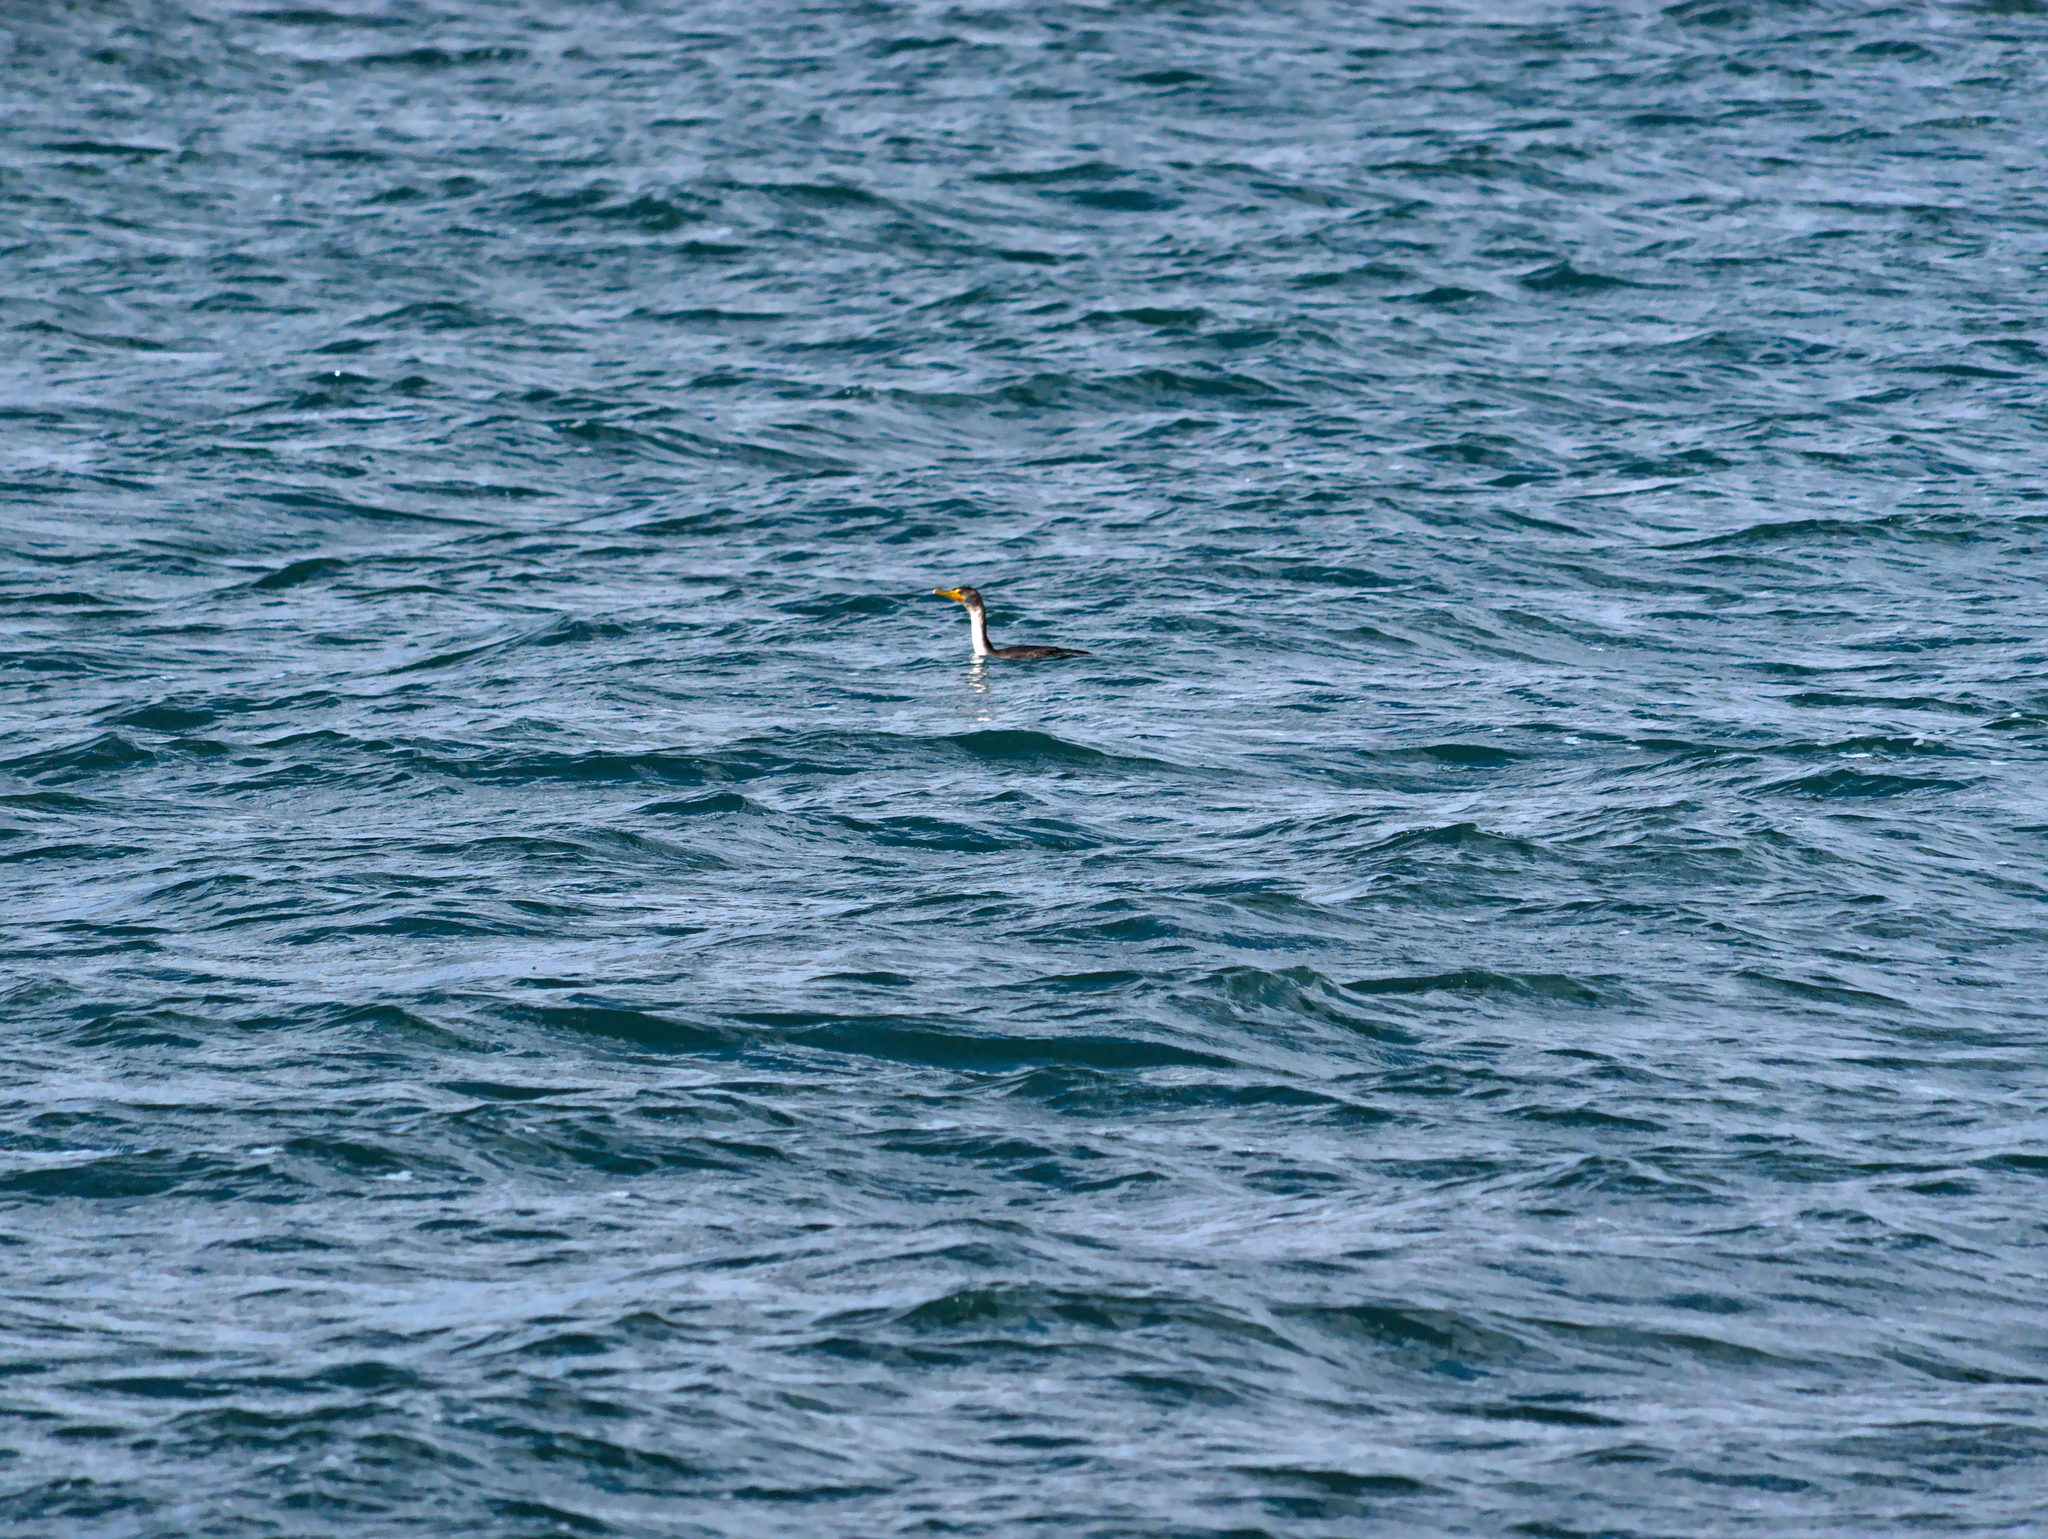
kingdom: Animalia
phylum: Chordata
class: Aves
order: Suliformes
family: Phalacrocoracidae
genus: Phalacrocorax
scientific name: Phalacrocorax auritus
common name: Double-crested cormorant
